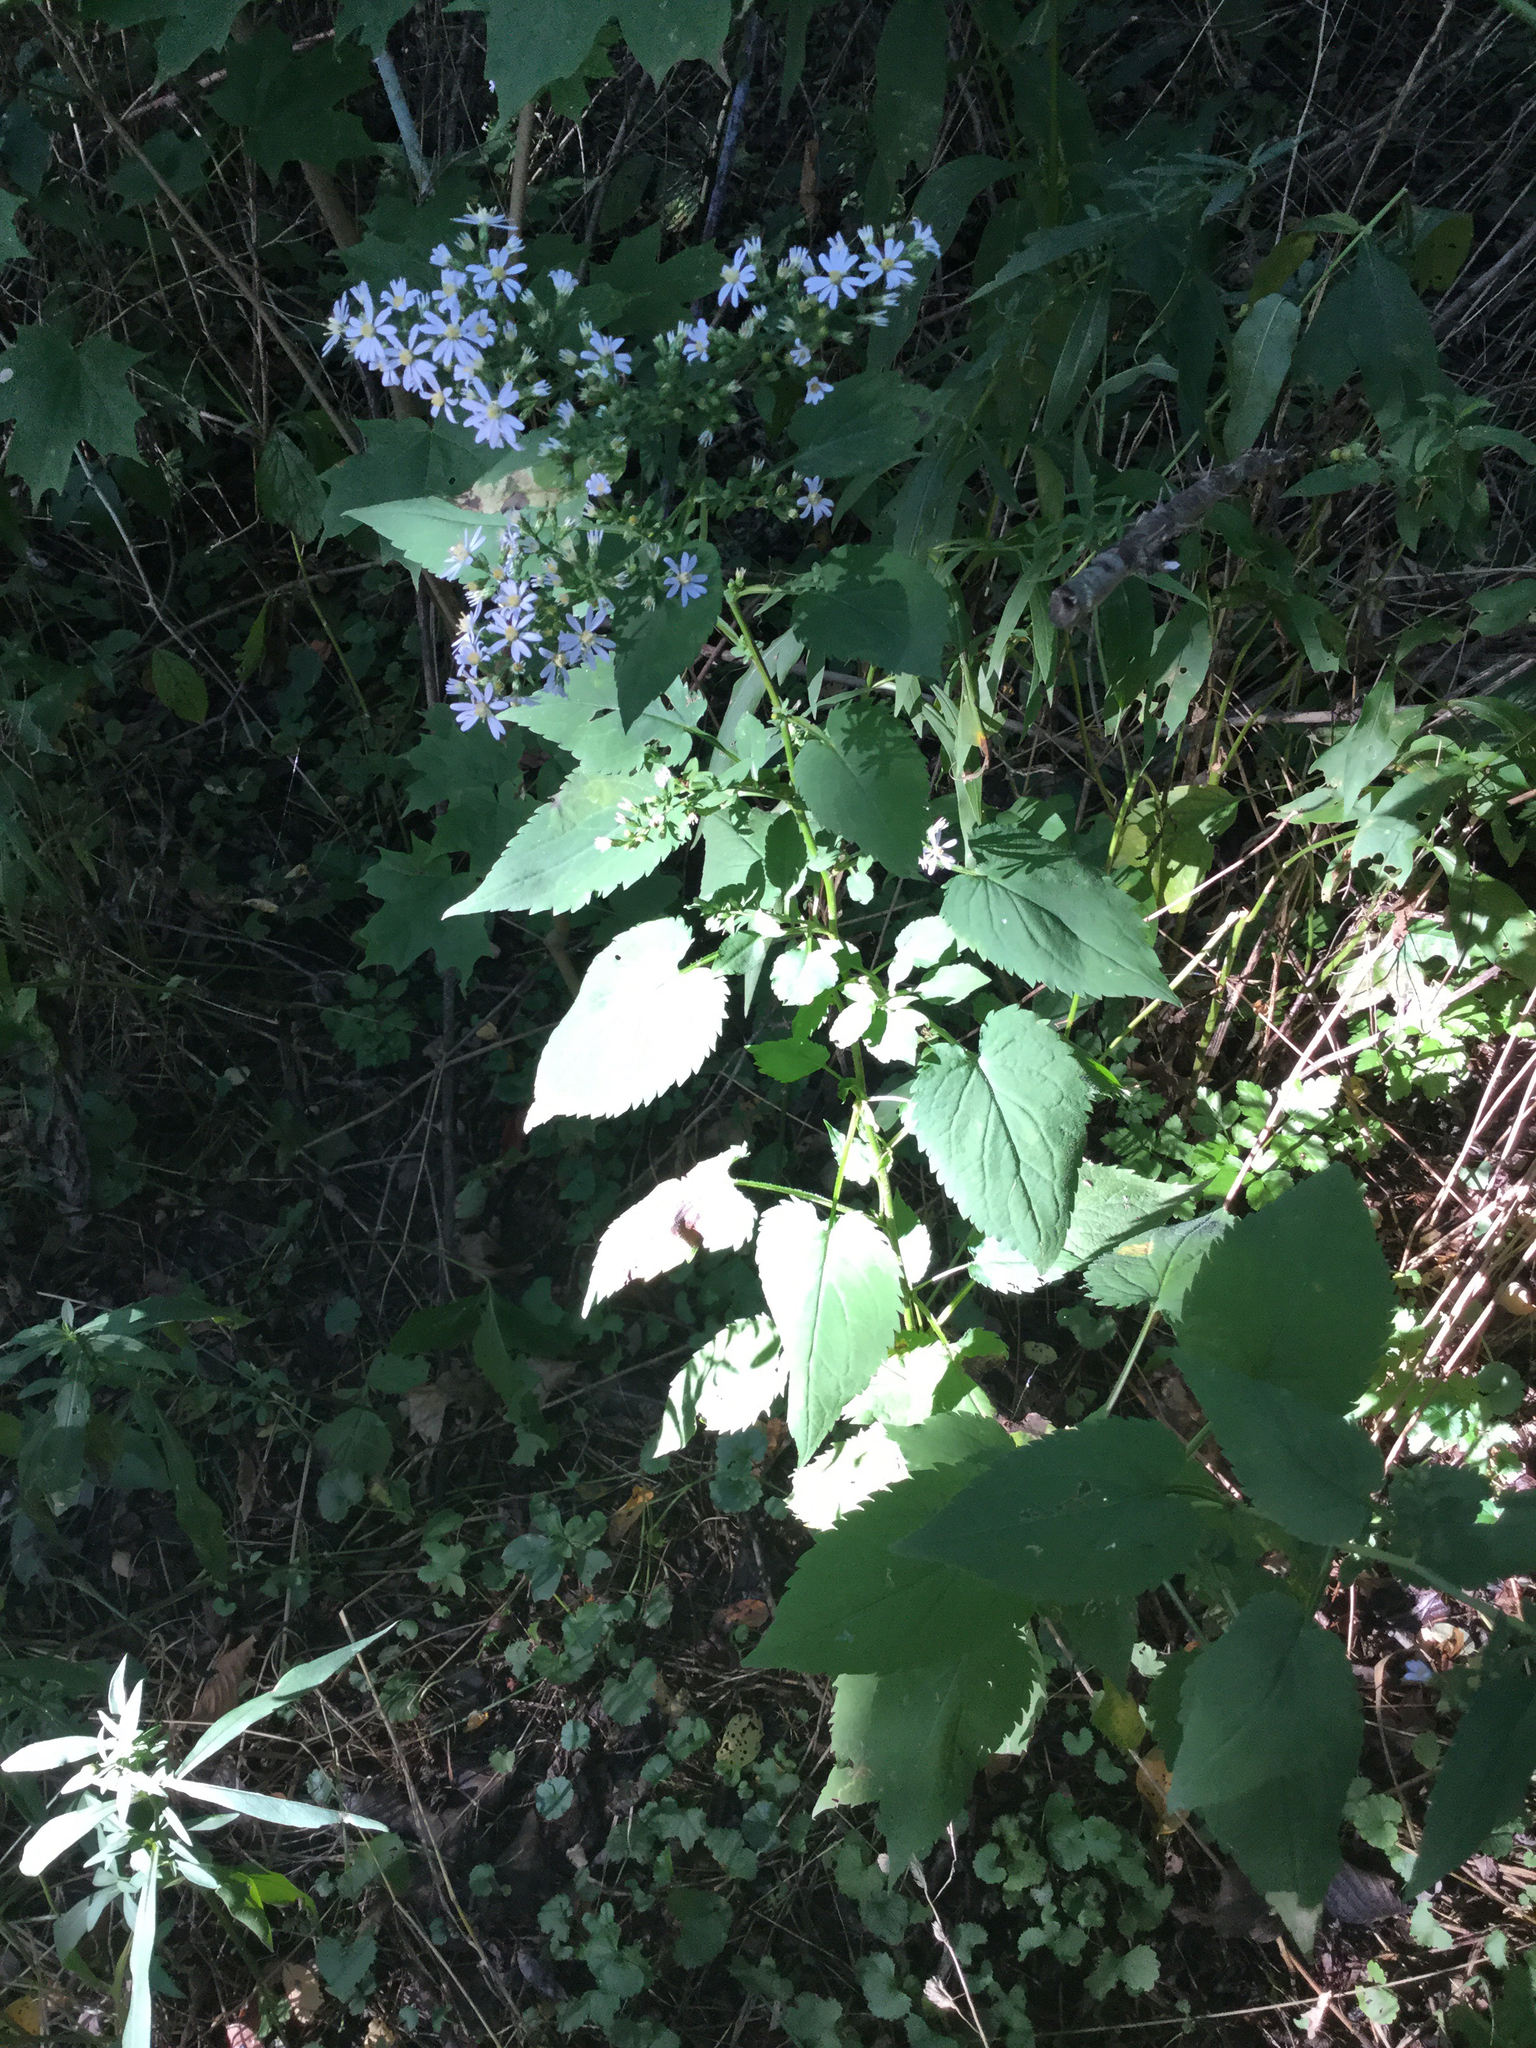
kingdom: Plantae
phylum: Tracheophyta
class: Magnoliopsida
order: Asterales
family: Asteraceae
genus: Symphyotrichum
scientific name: Symphyotrichum cordifolium
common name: Beeweed
